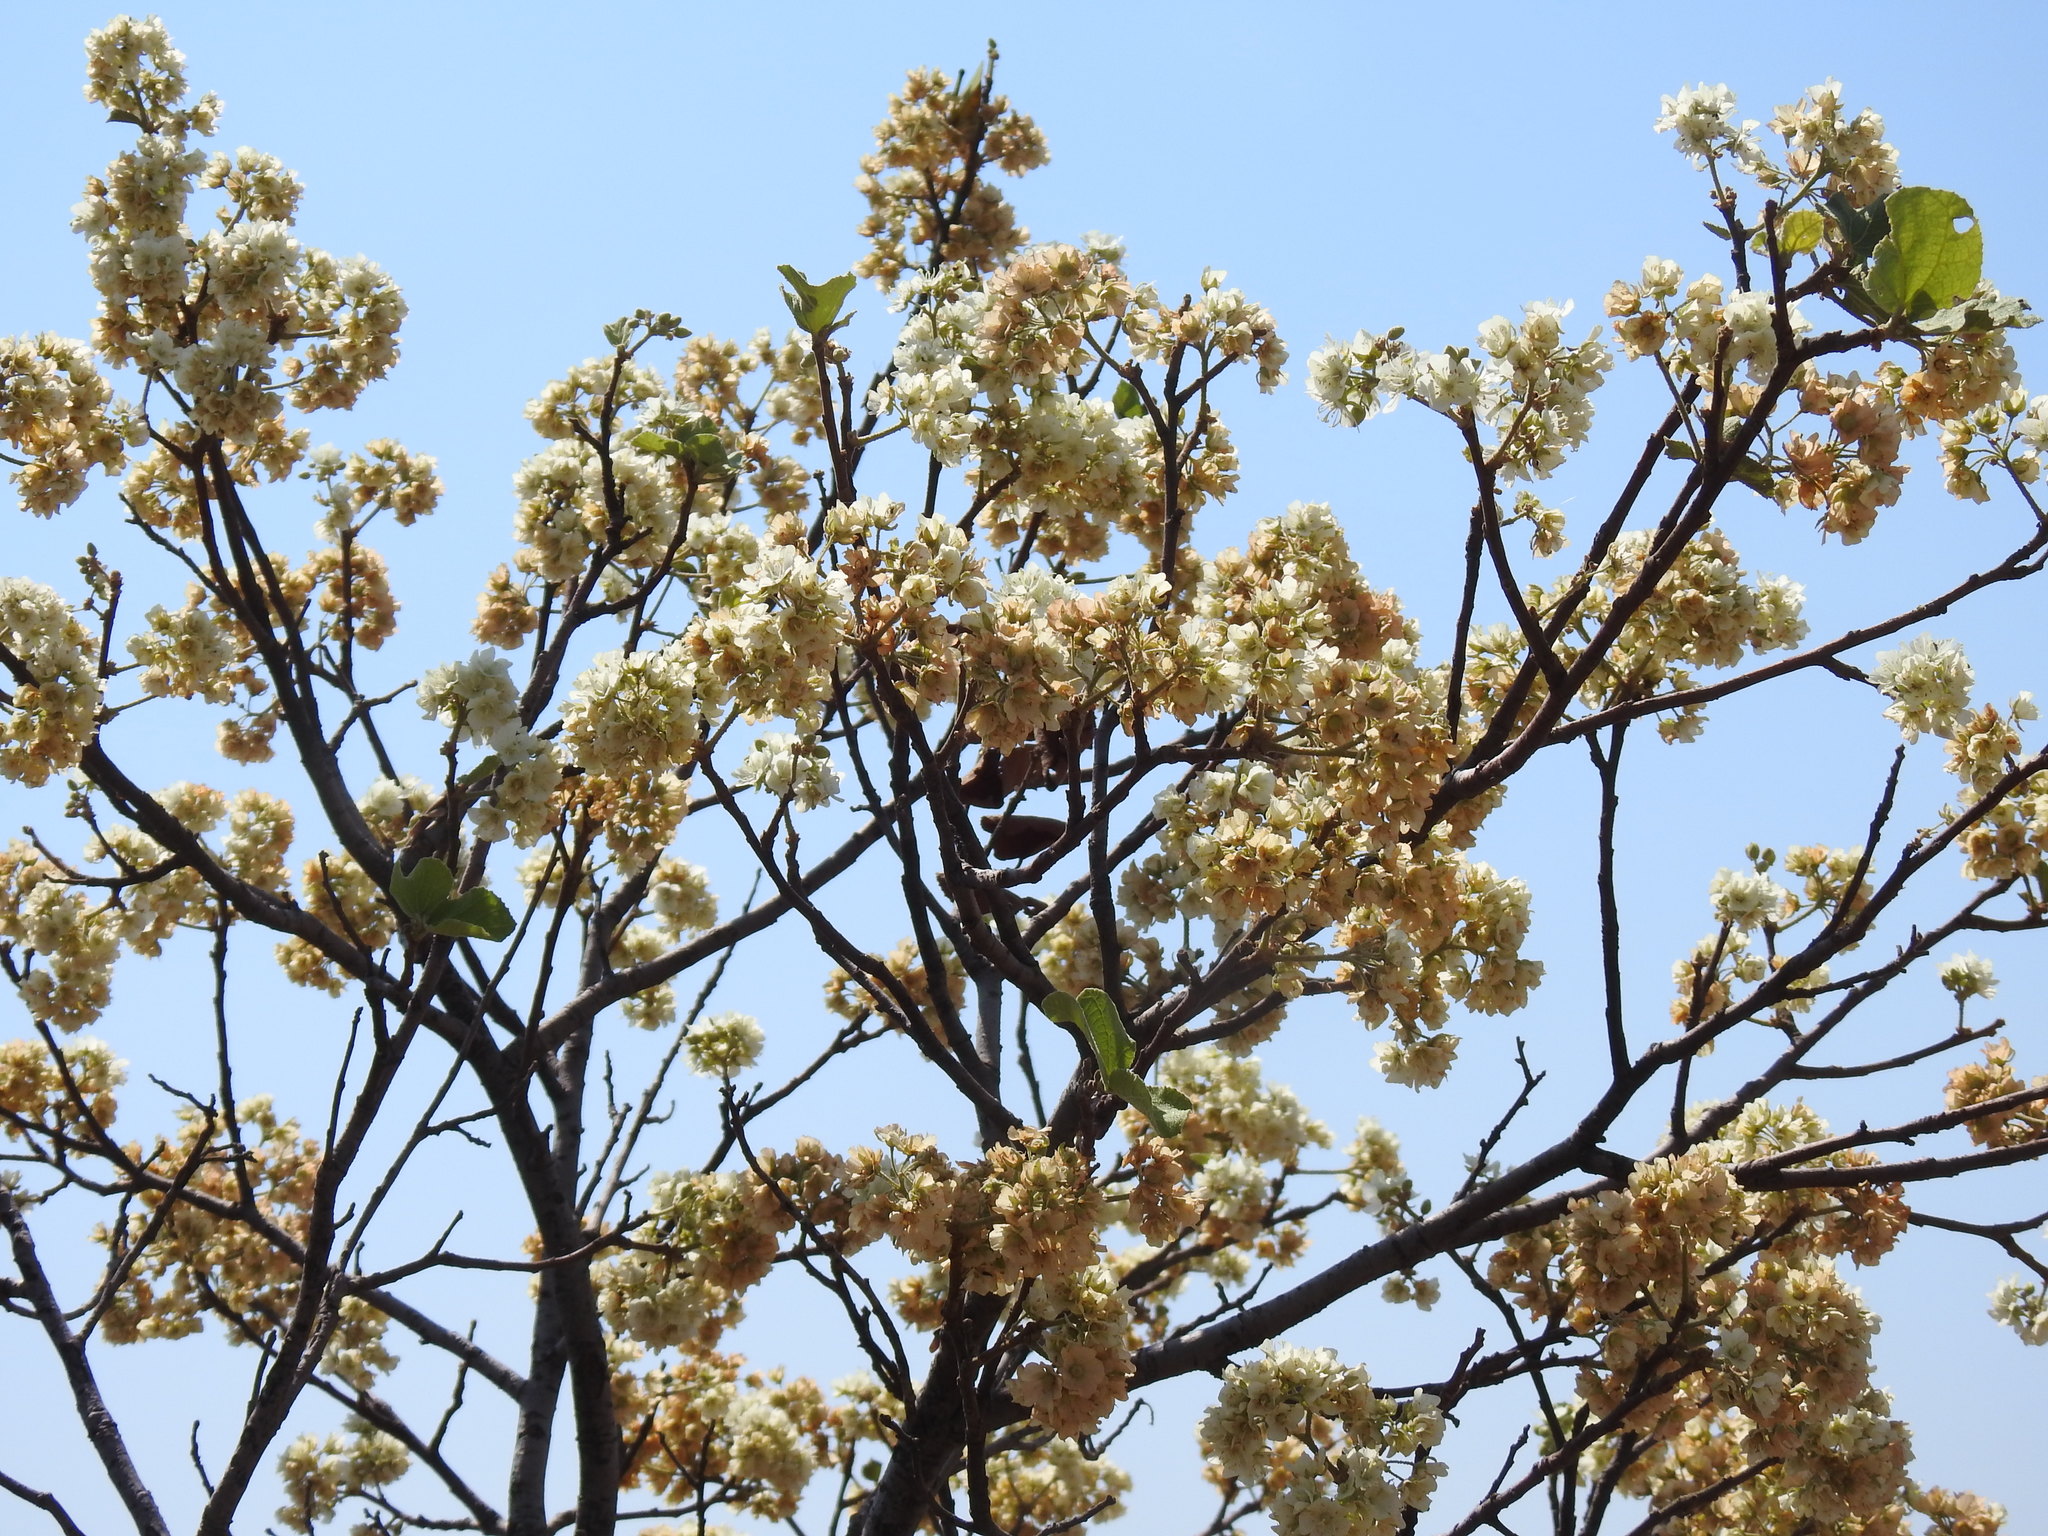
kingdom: Plantae
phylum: Tracheophyta
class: Magnoliopsida
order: Malvales
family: Malvaceae
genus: Dombeya
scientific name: Dombeya rotundifolia
